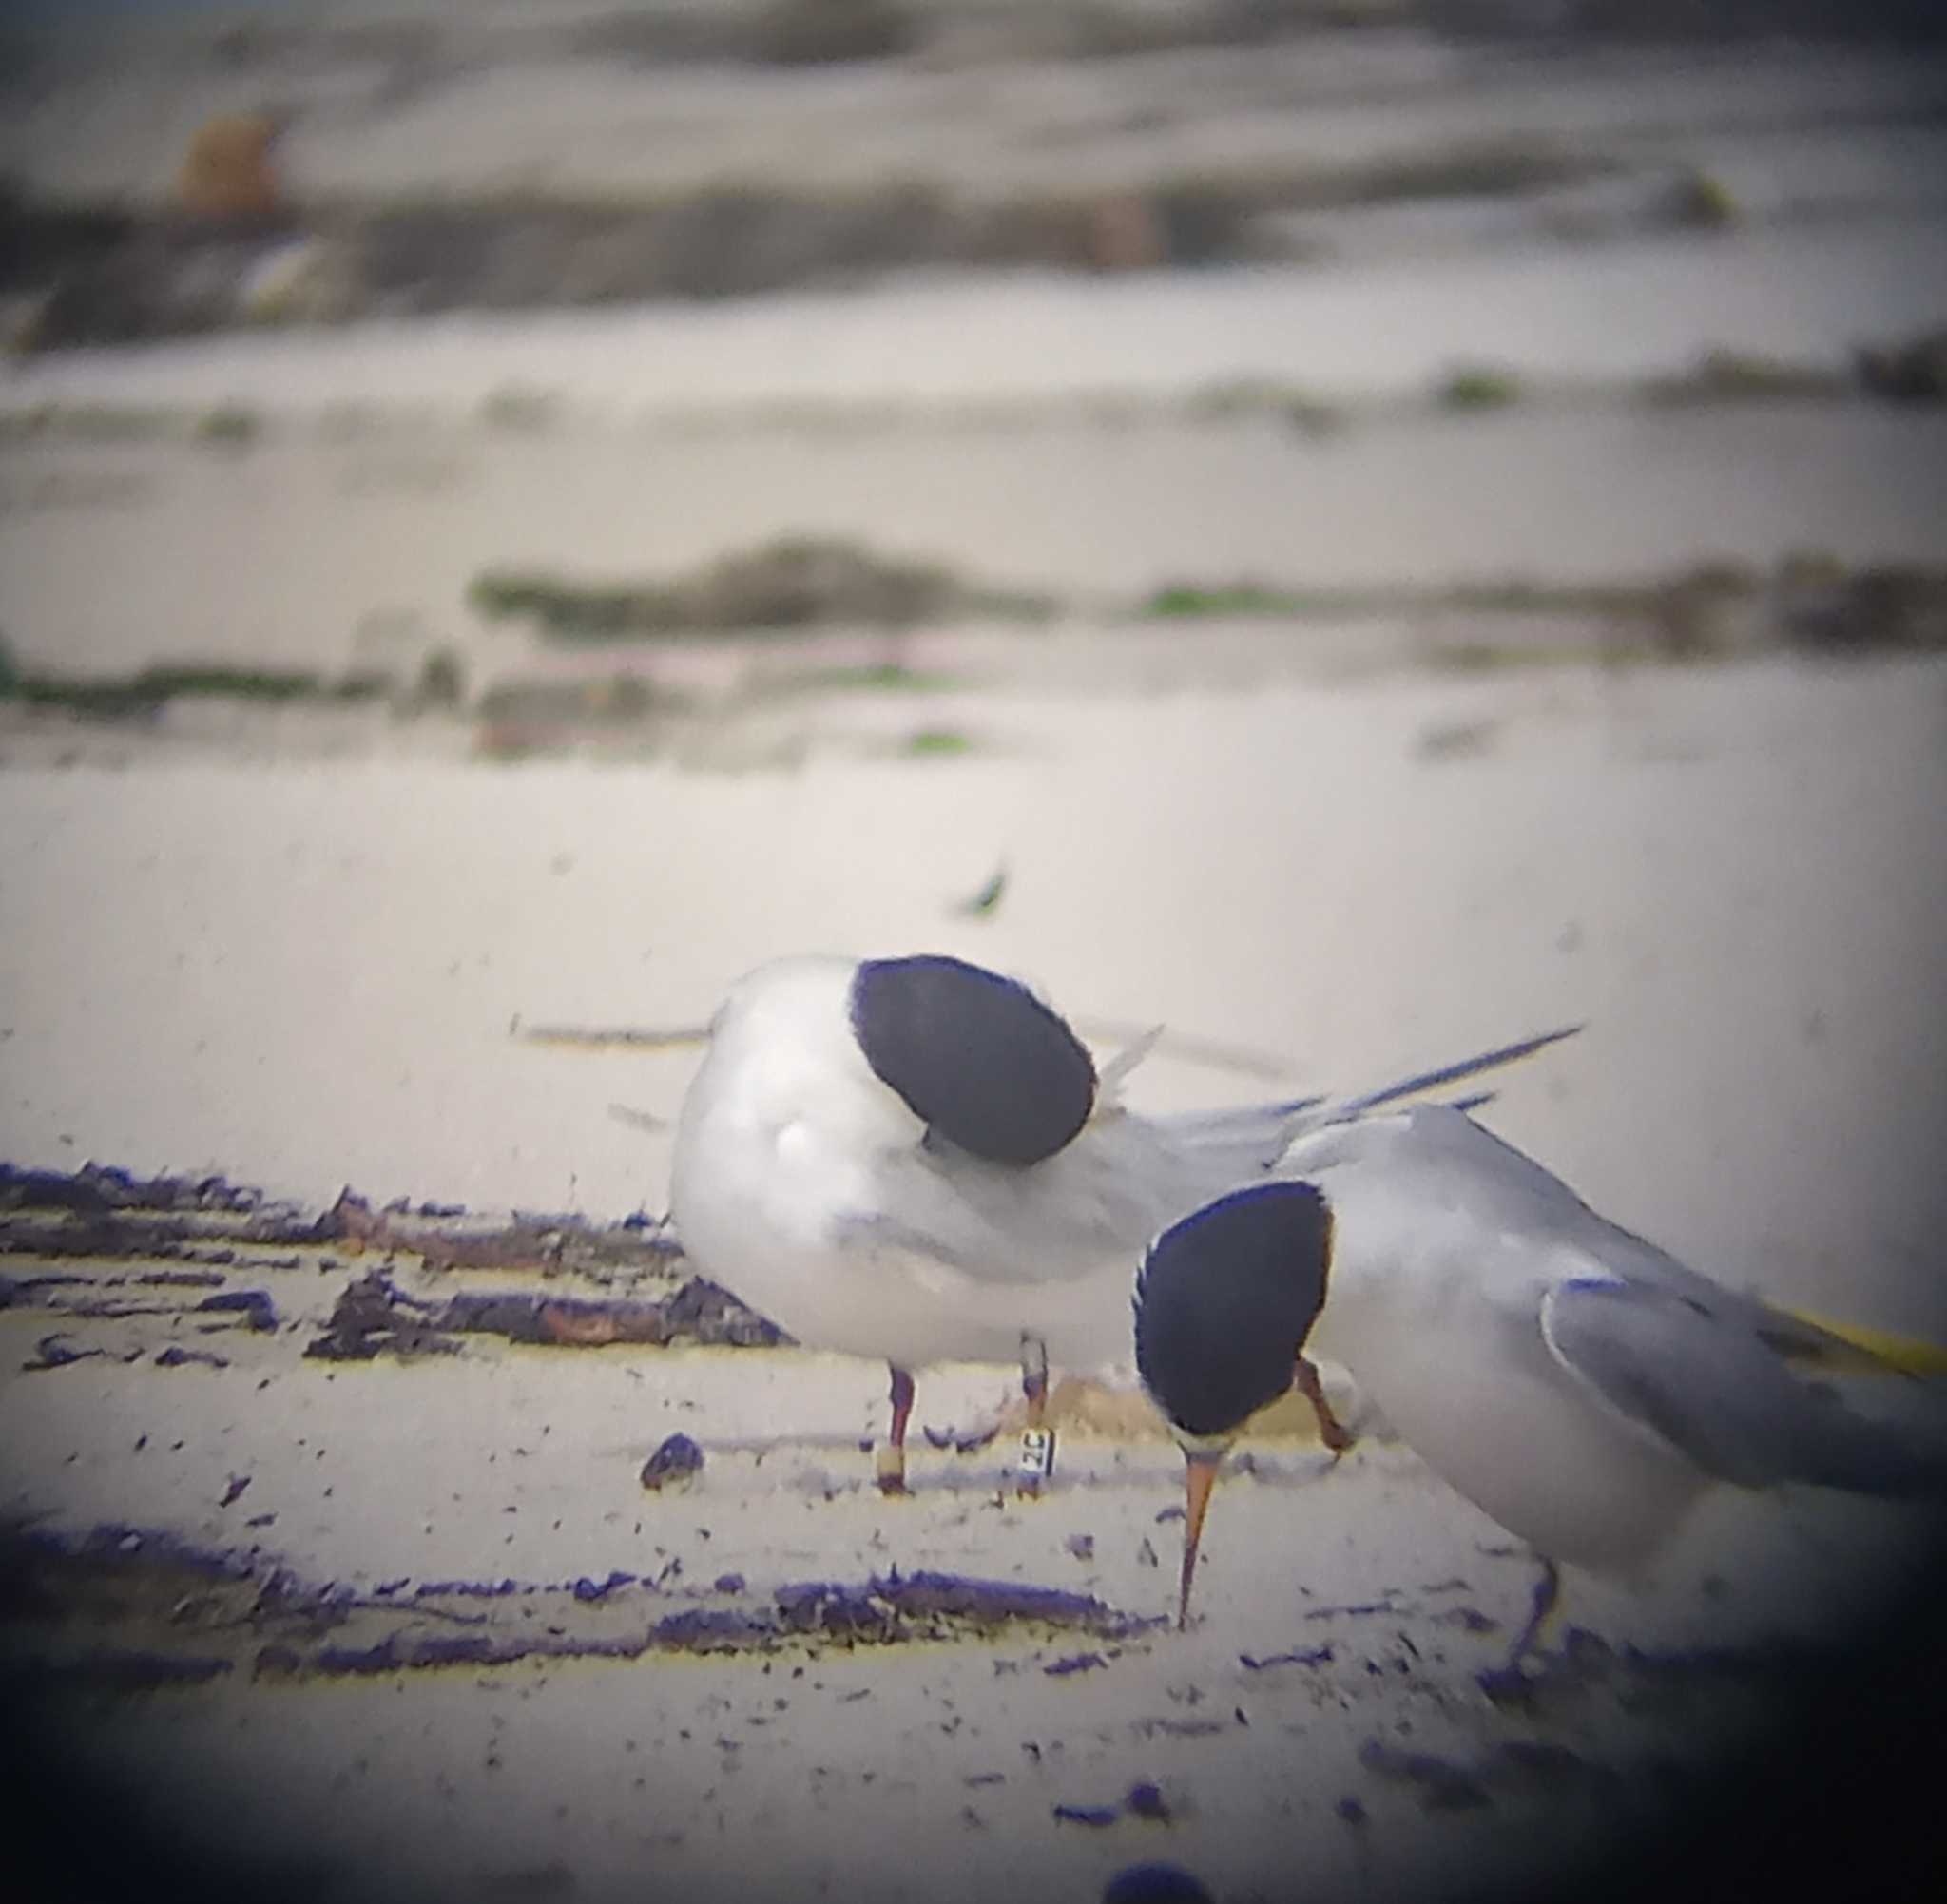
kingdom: Animalia
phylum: Chordata
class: Aves
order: Charadriiformes
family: Laridae
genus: Sternula
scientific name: Sternula antillarum
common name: Least tern
